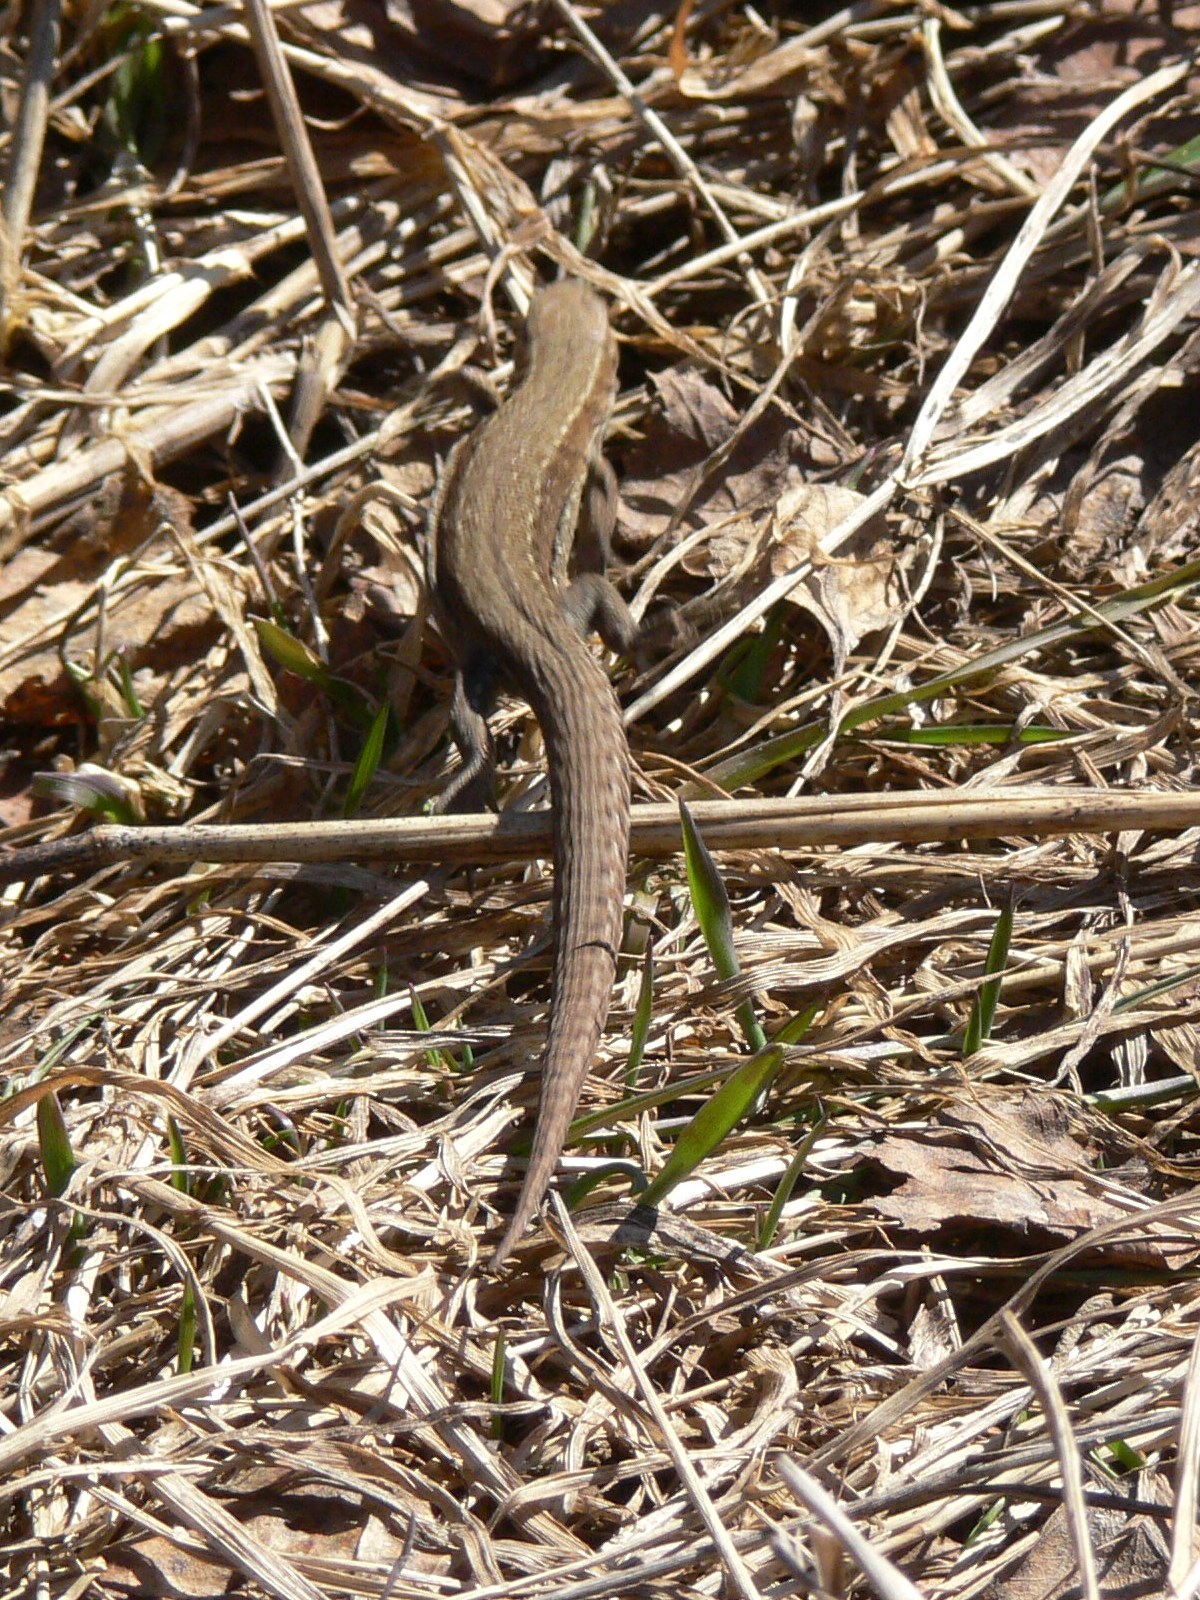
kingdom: Animalia
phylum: Chordata
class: Squamata
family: Lacertidae
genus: Zootoca
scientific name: Zootoca vivipara
